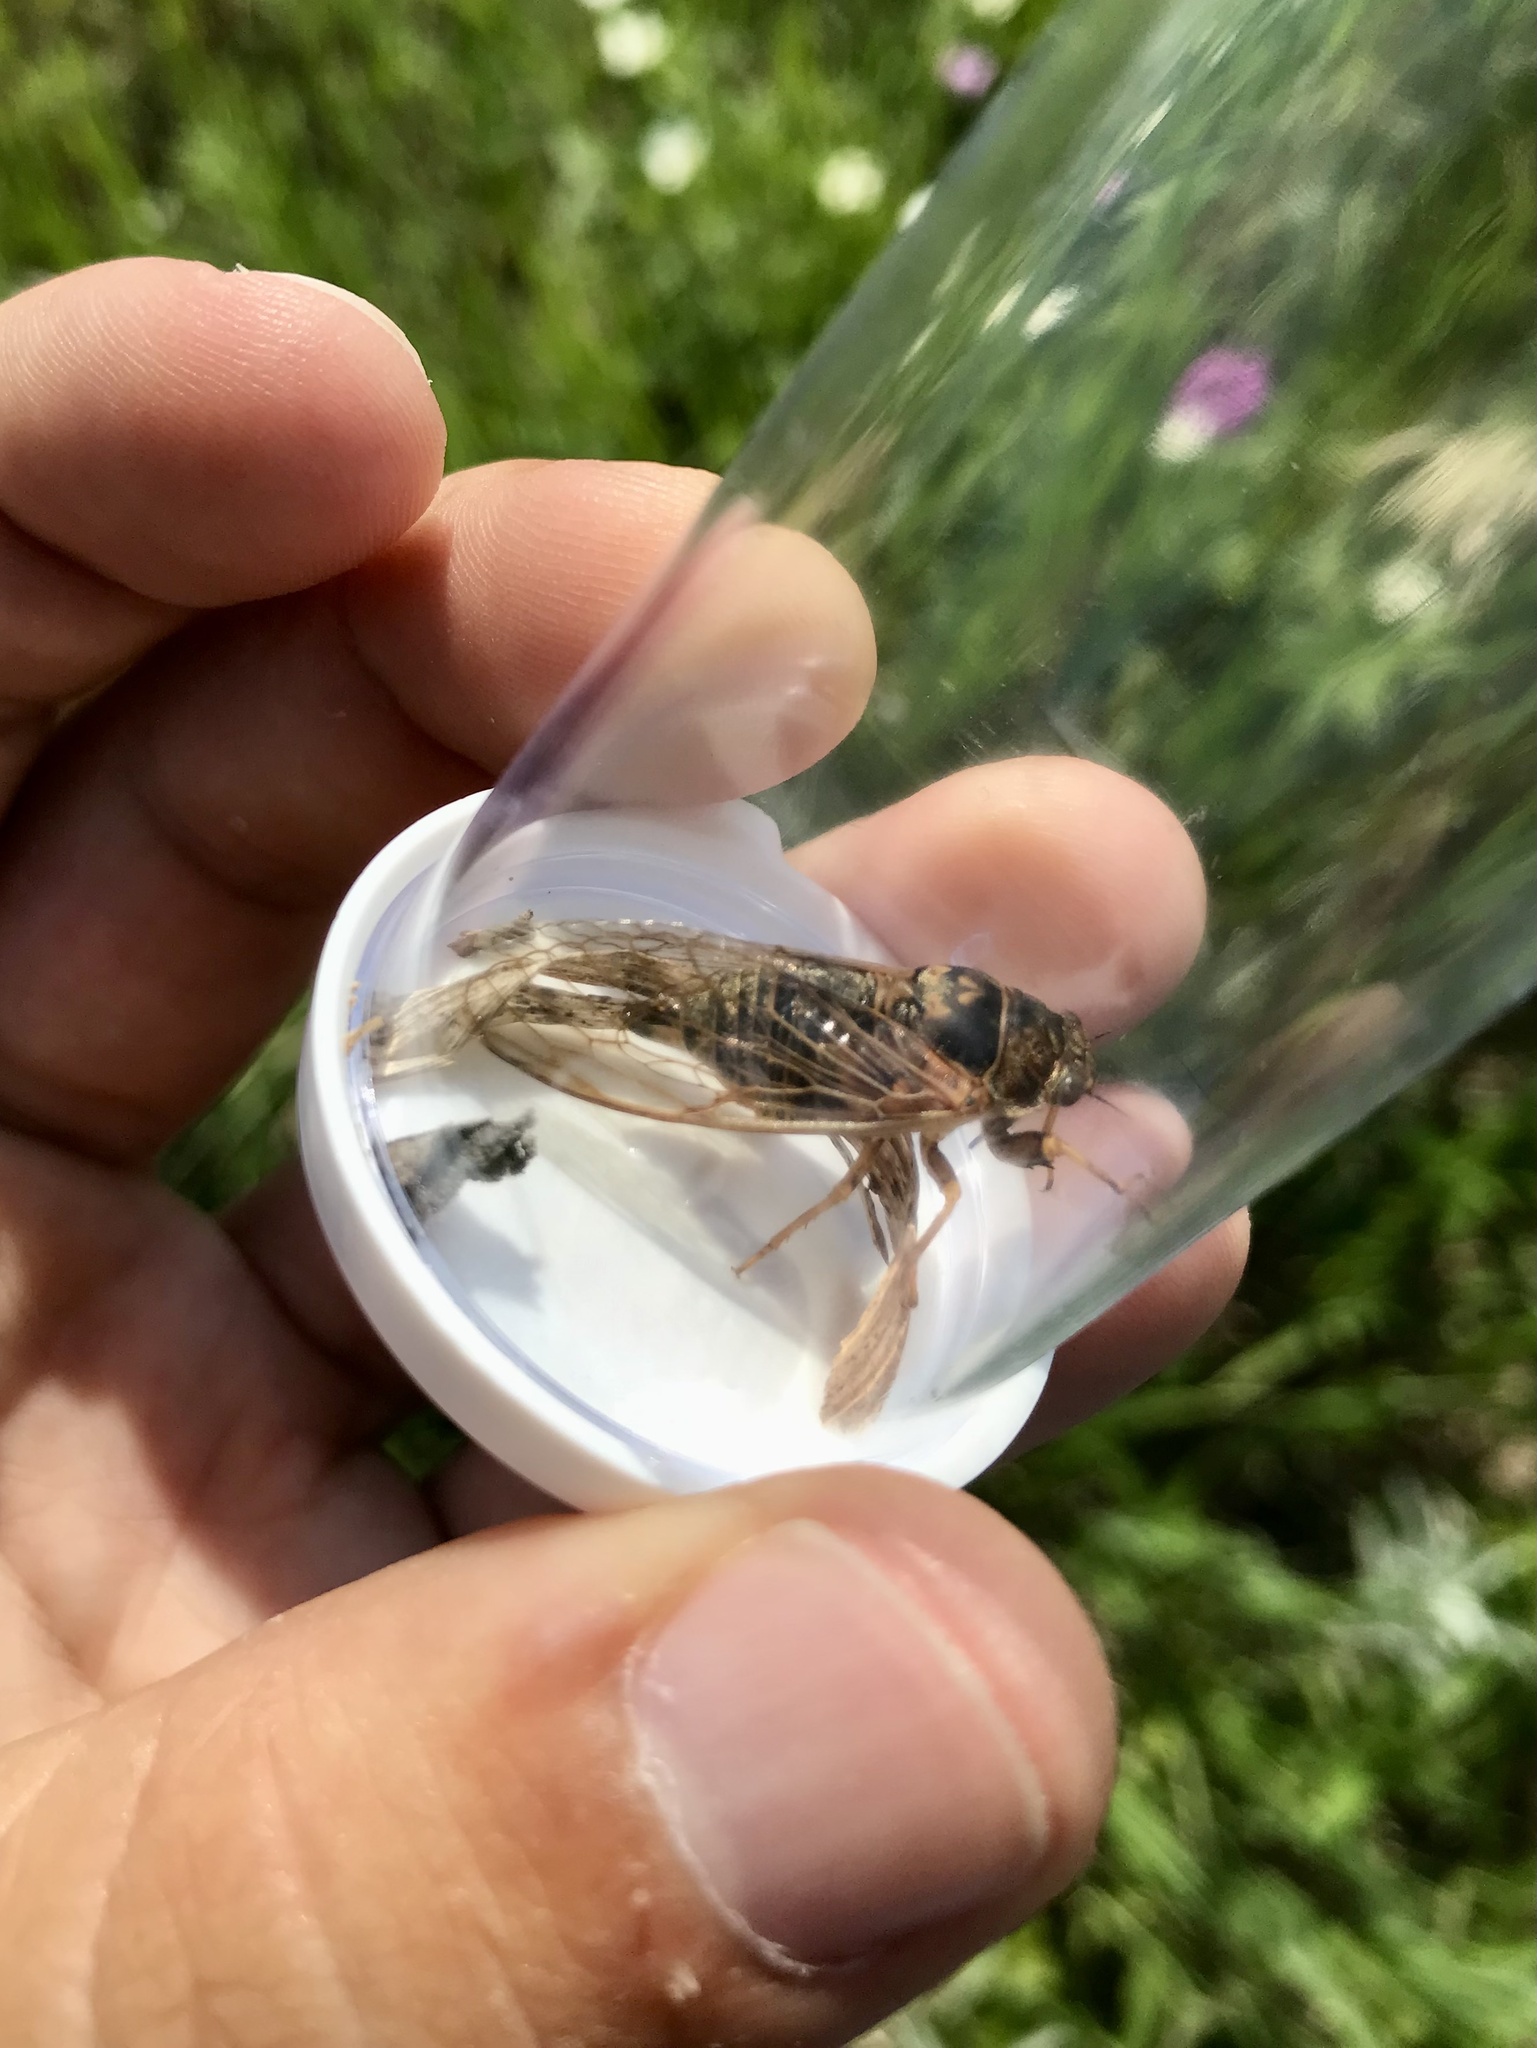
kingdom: Animalia
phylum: Arthropoda
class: Insecta
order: Hemiptera
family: Cicadidae
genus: Okanagana
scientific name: Okanagana balli
